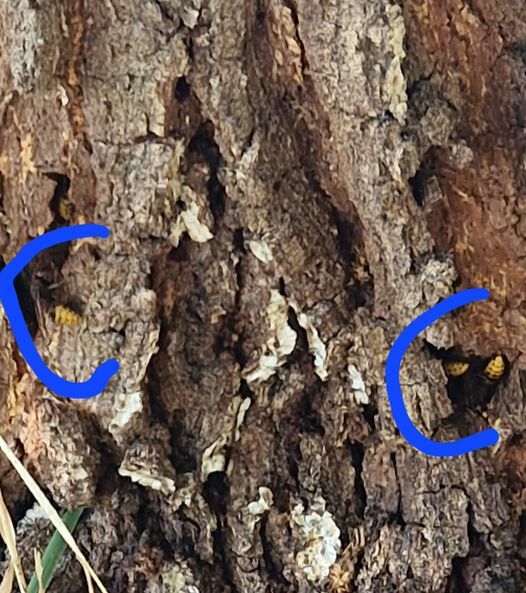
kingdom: Animalia
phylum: Arthropoda
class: Insecta
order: Hymenoptera
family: Vespidae
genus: Vespa
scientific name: Vespa crabro
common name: Hornet
